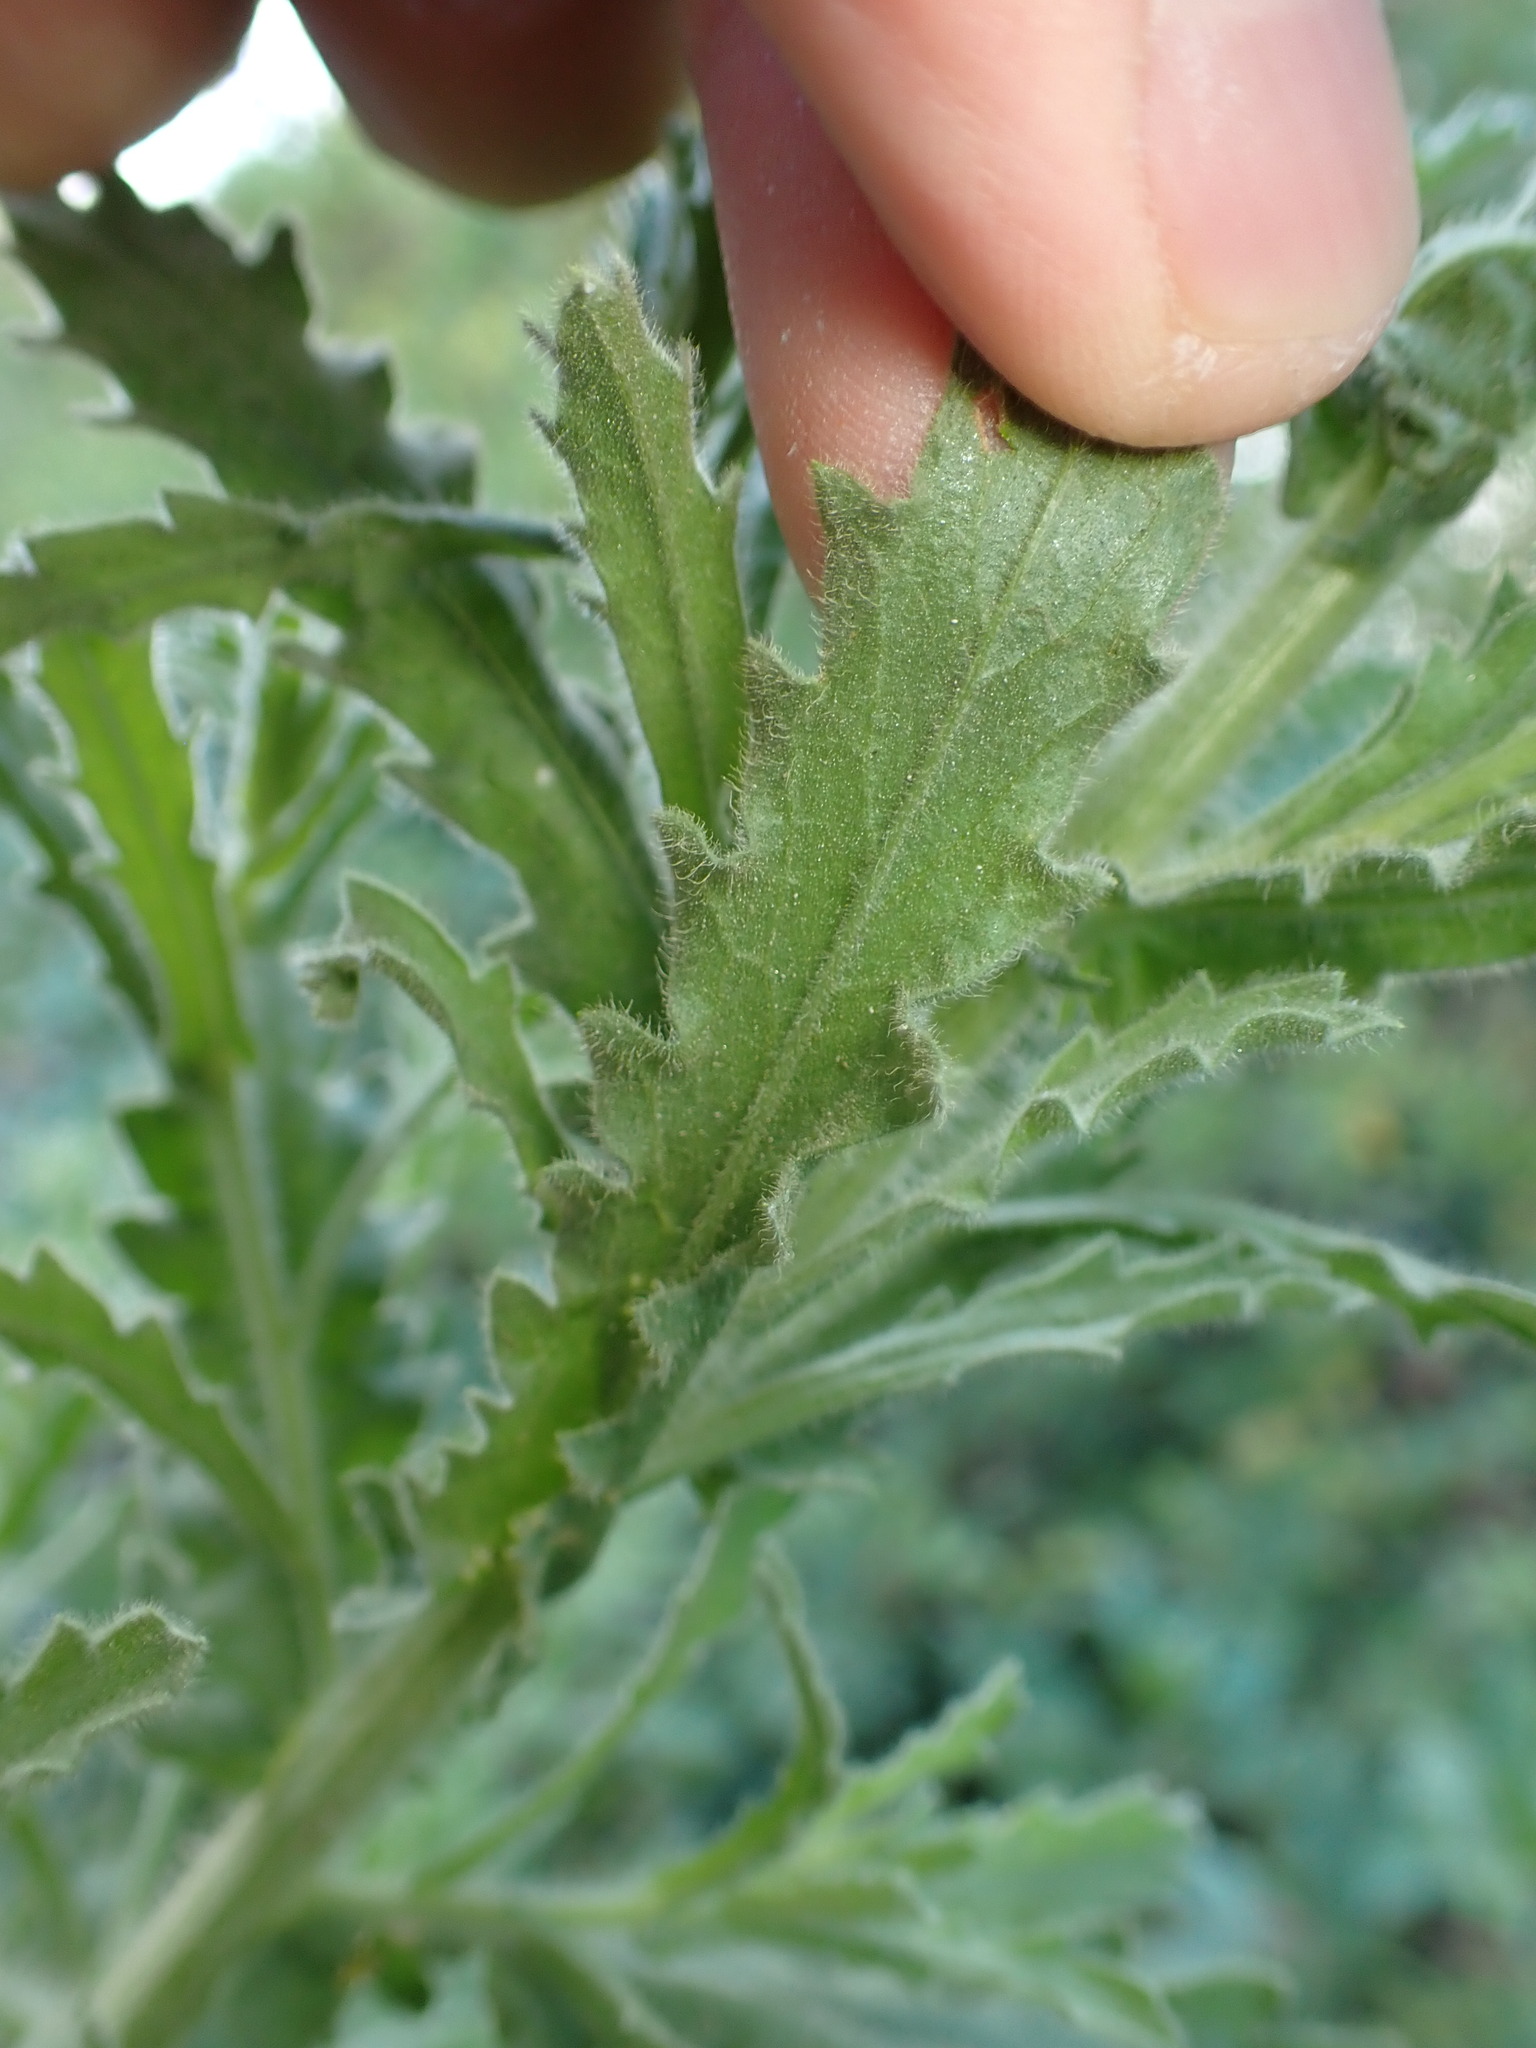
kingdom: Plantae
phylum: Tracheophyta
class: Magnoliopsida
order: Asterales
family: Asteraceae
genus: Laennecia
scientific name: Laennecia coulteri
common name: Coulter's woolwort
